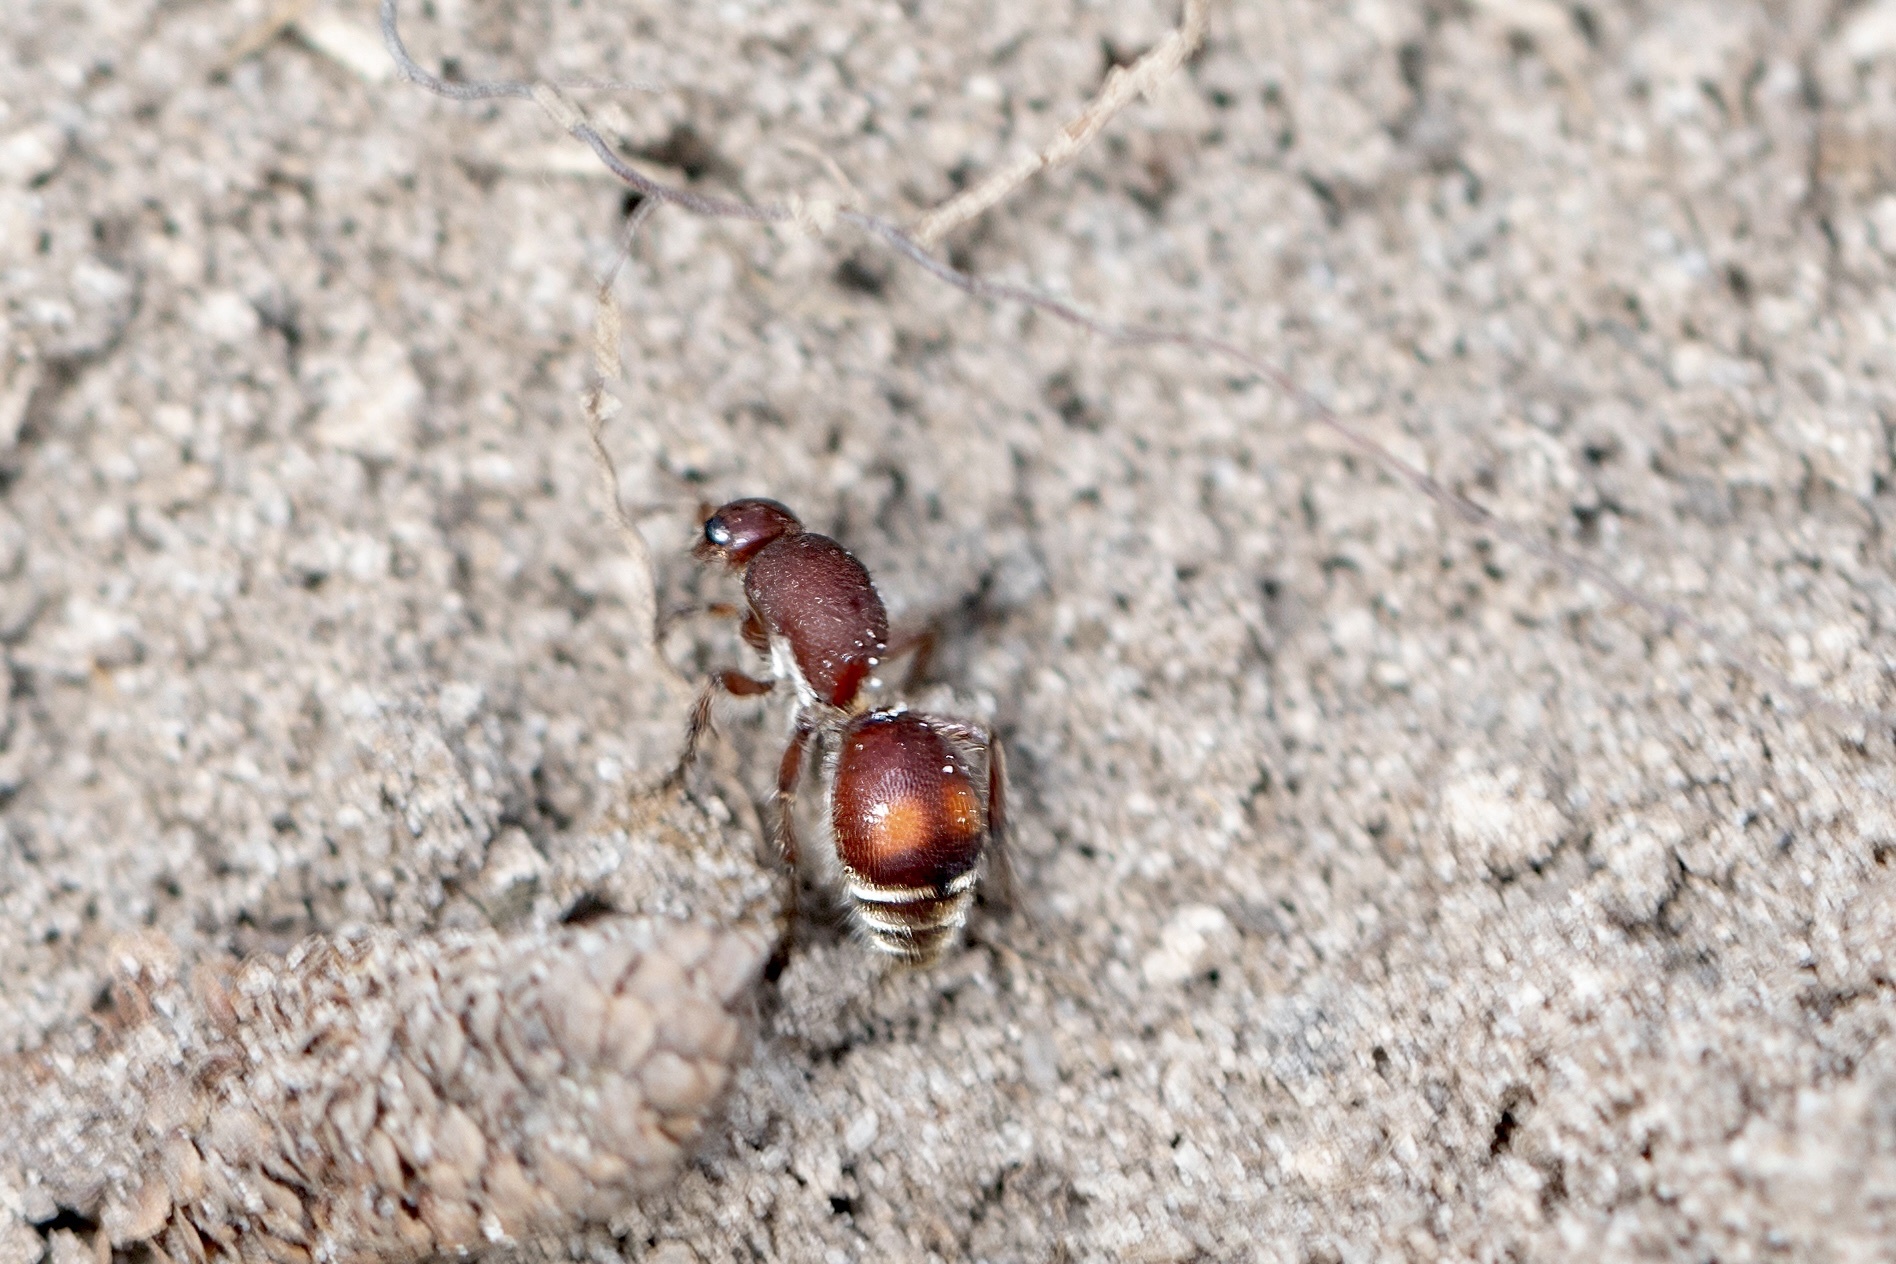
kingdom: Animalia
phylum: Arthropoda
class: Insecta
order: Hymenoptera
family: Mutillidae
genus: Dasymutilla
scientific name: Dasymutilla
